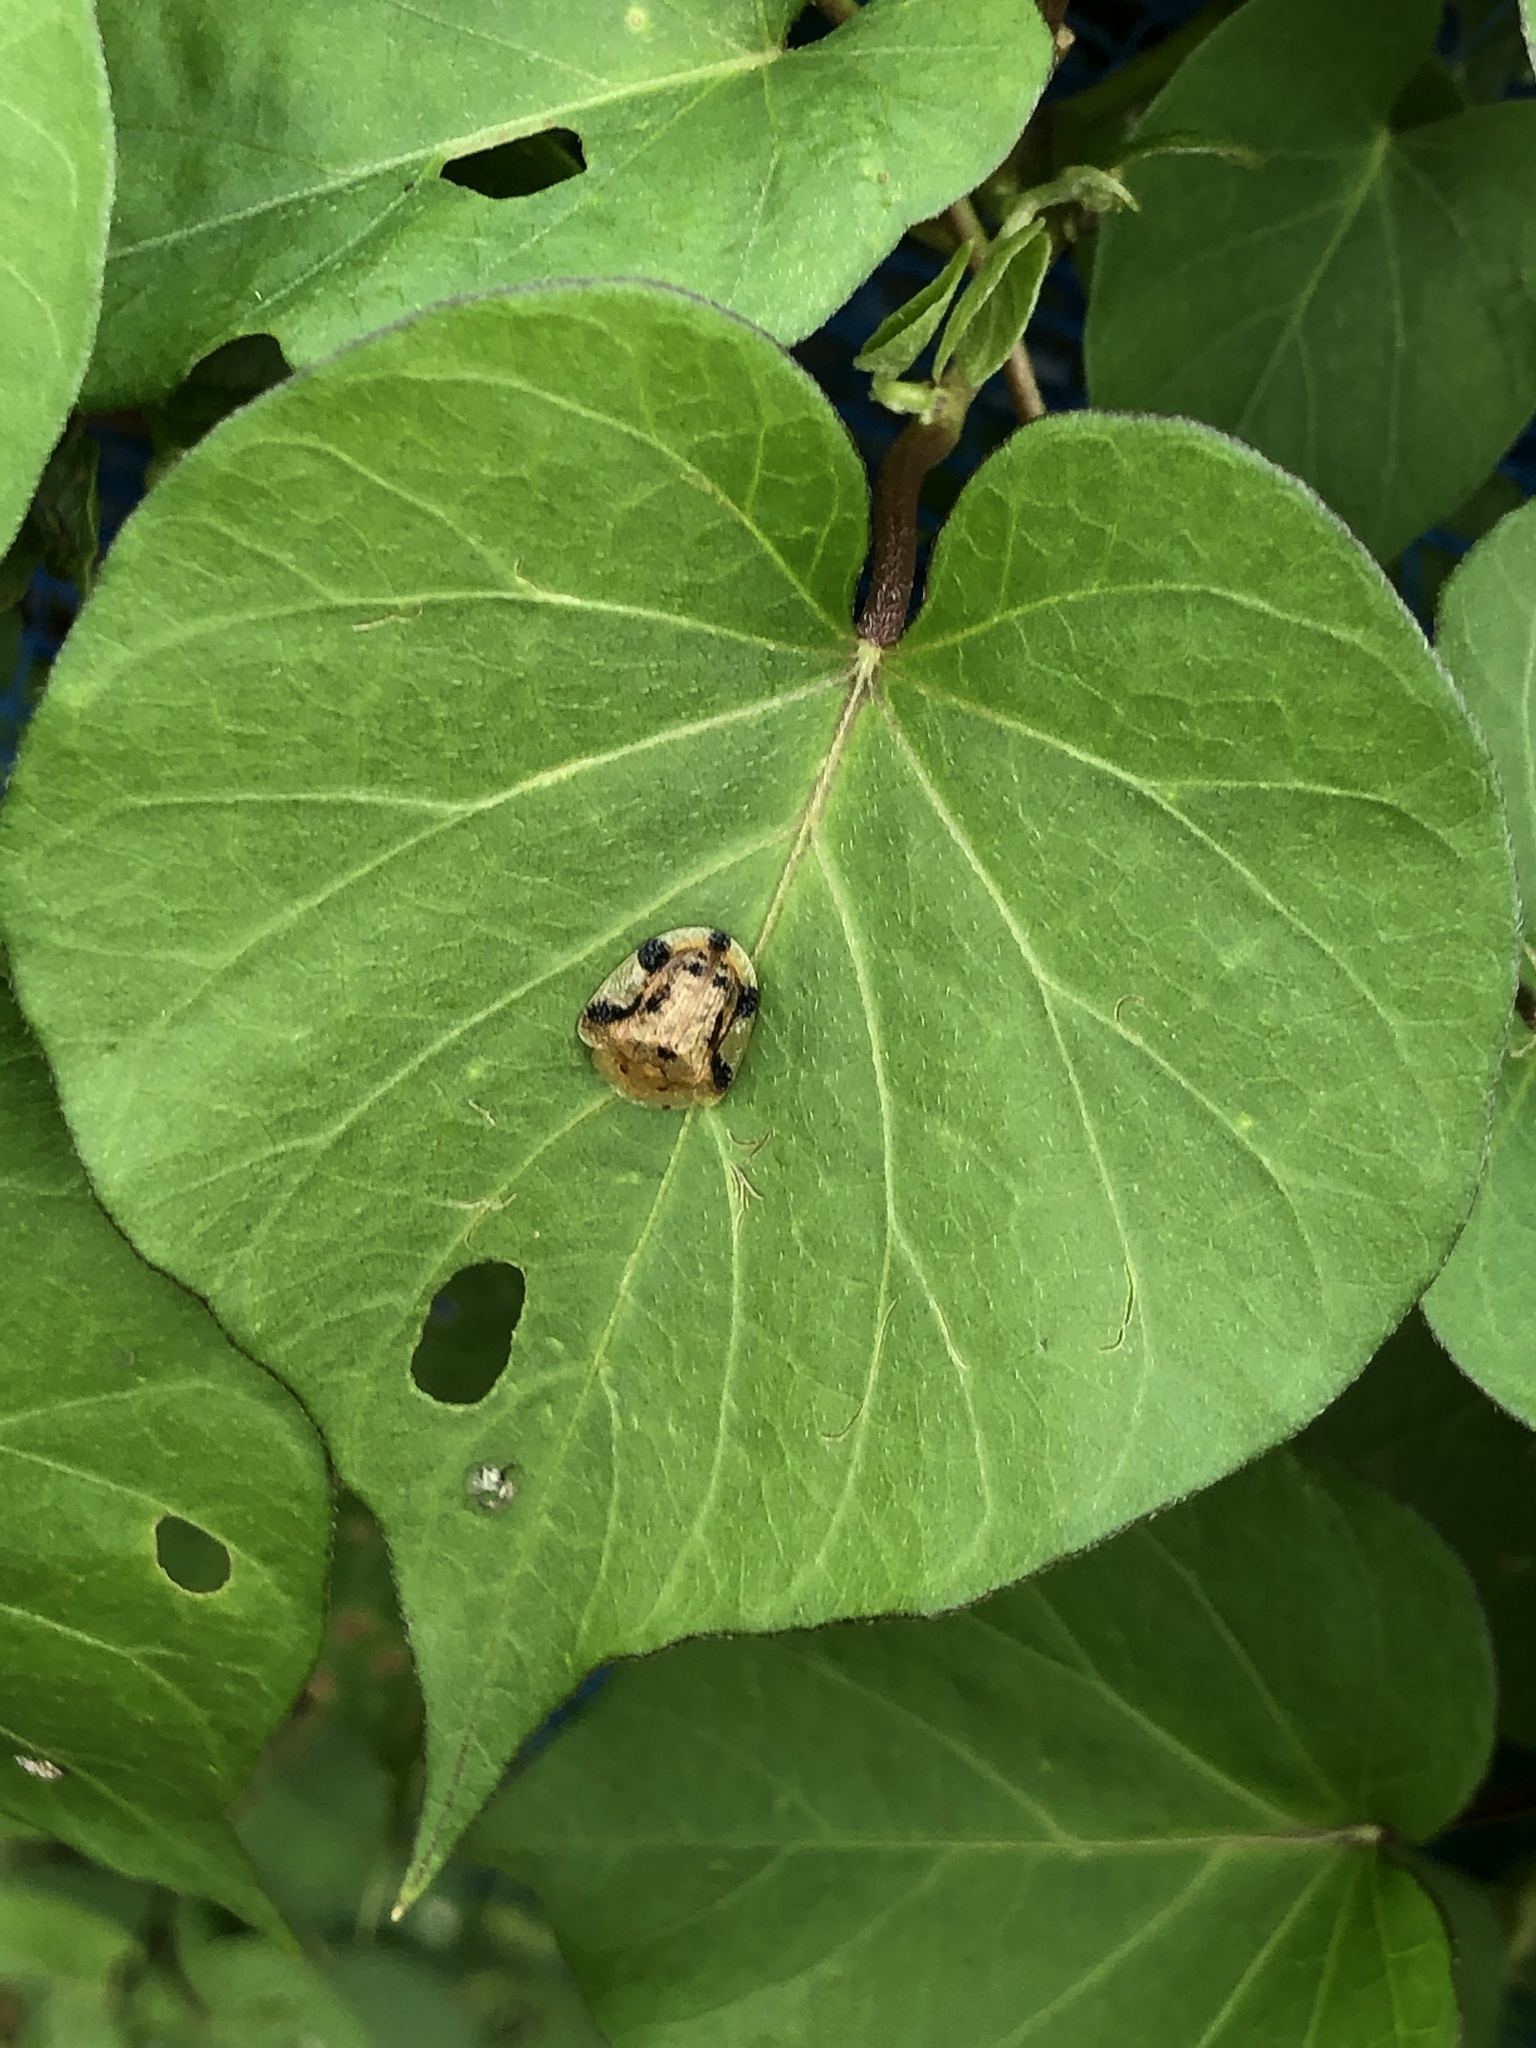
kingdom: Animalia
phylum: Arthropoda
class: Insecta
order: Coleoptera
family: Chrysomelidae
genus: Laccoptera
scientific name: Laccoptera nepalensis
